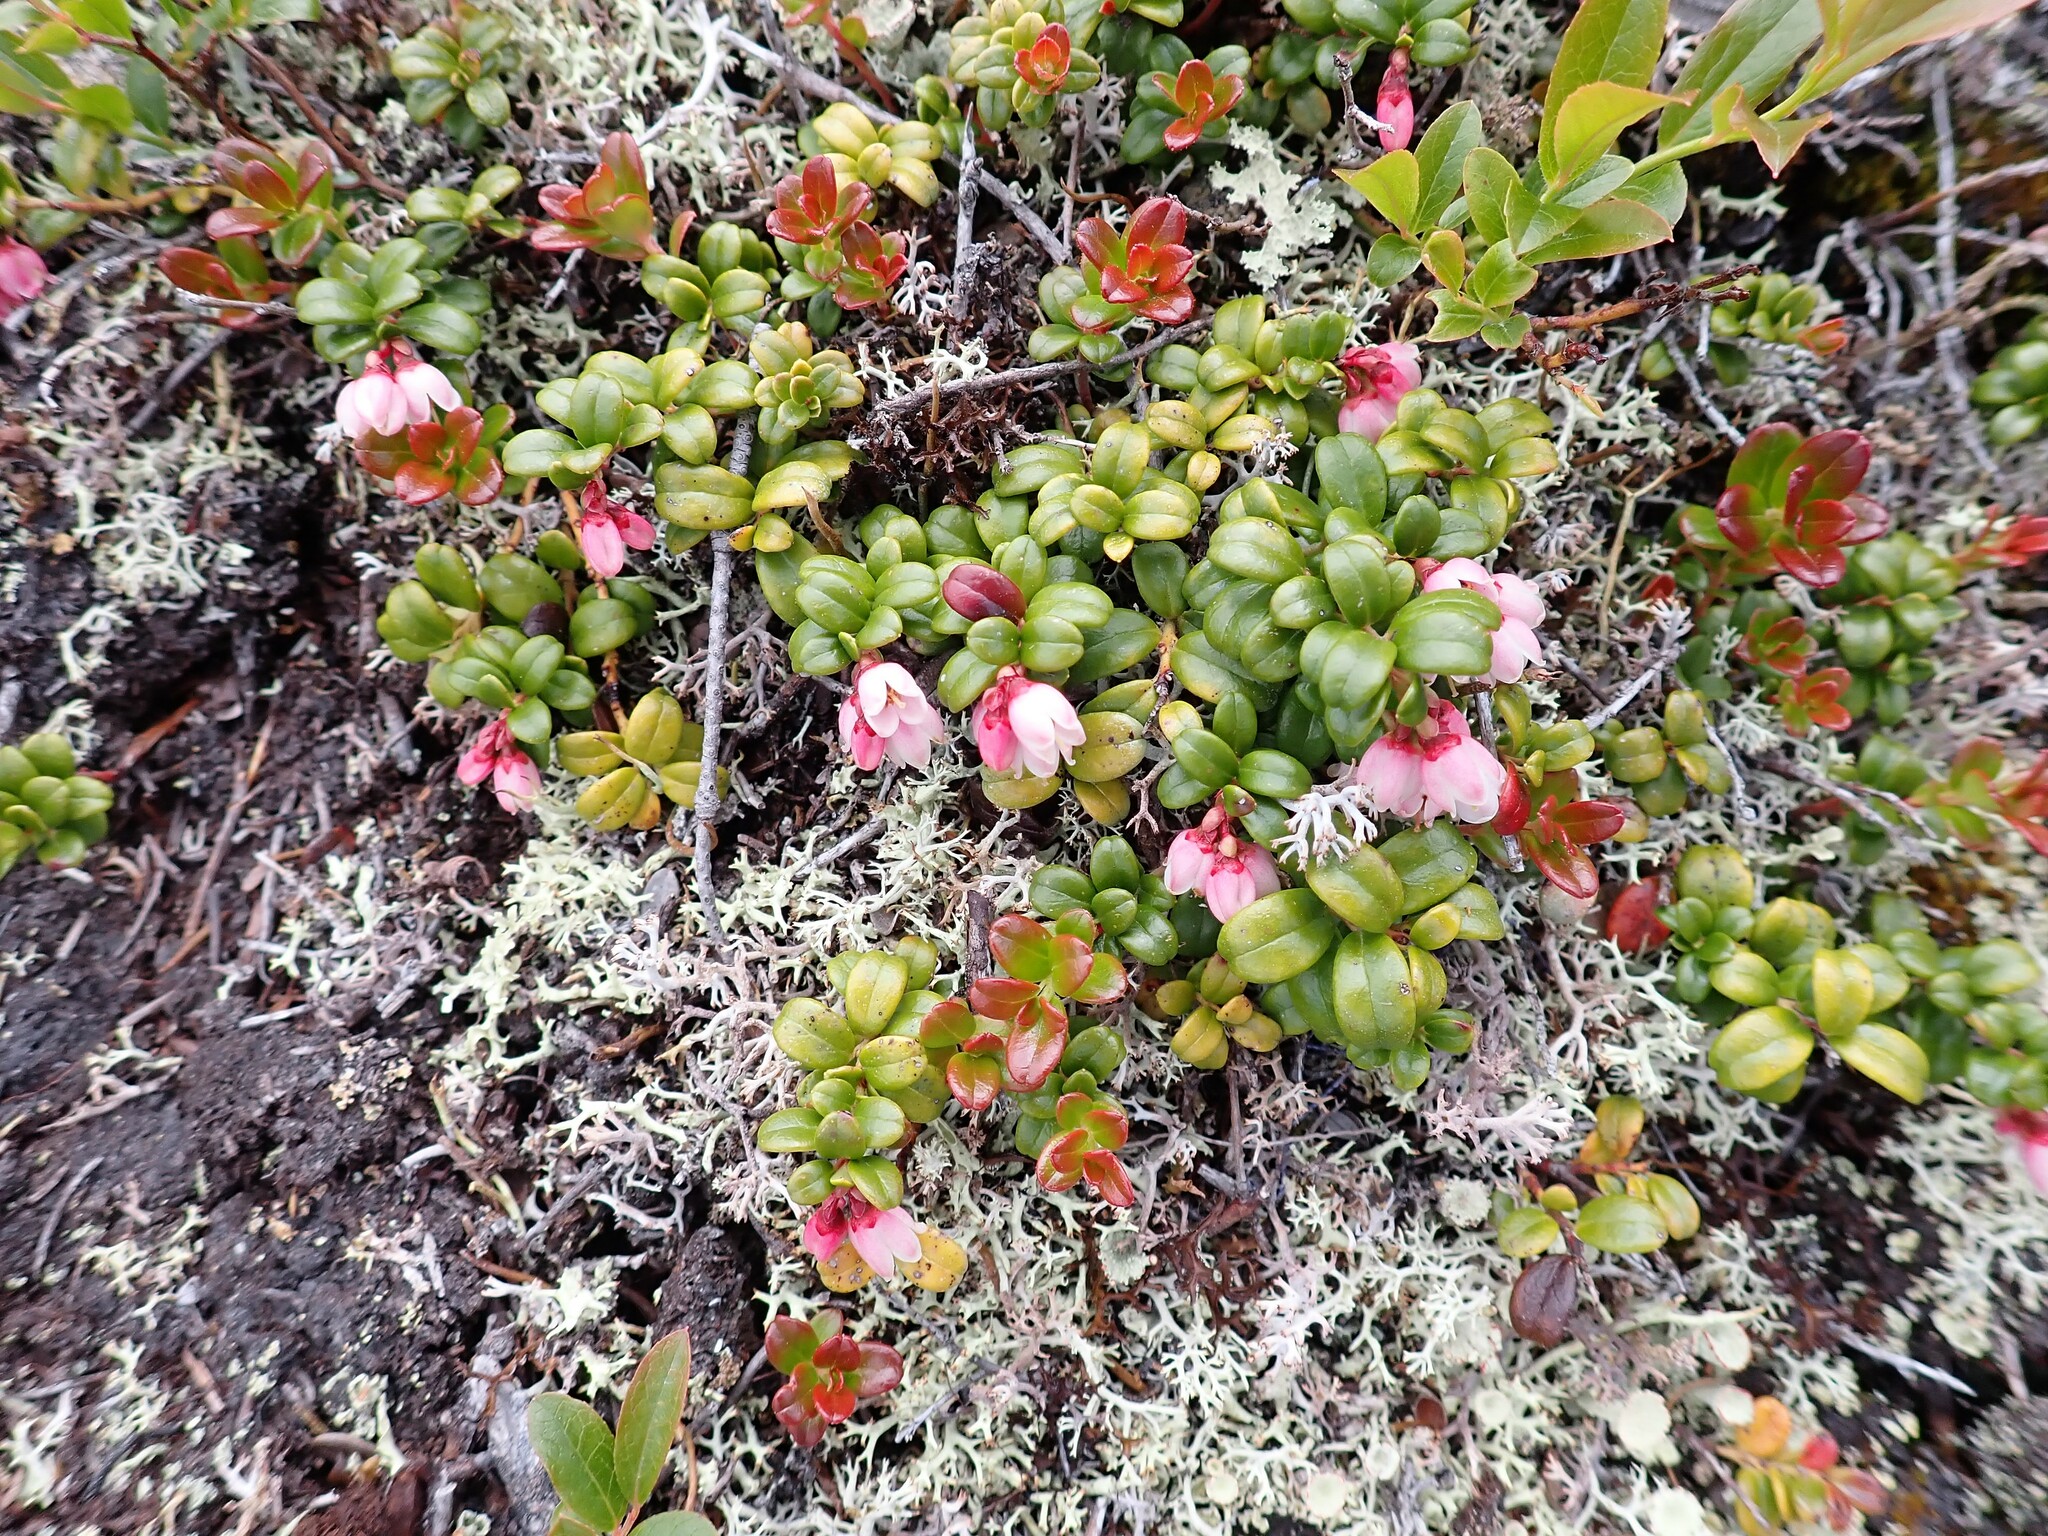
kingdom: Plantae
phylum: Tracheophyta
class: Magnoliopsida
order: Ericales
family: Ericaceae
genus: Vaccinium
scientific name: Vaccinium vitis-idaea
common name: Cowberry
